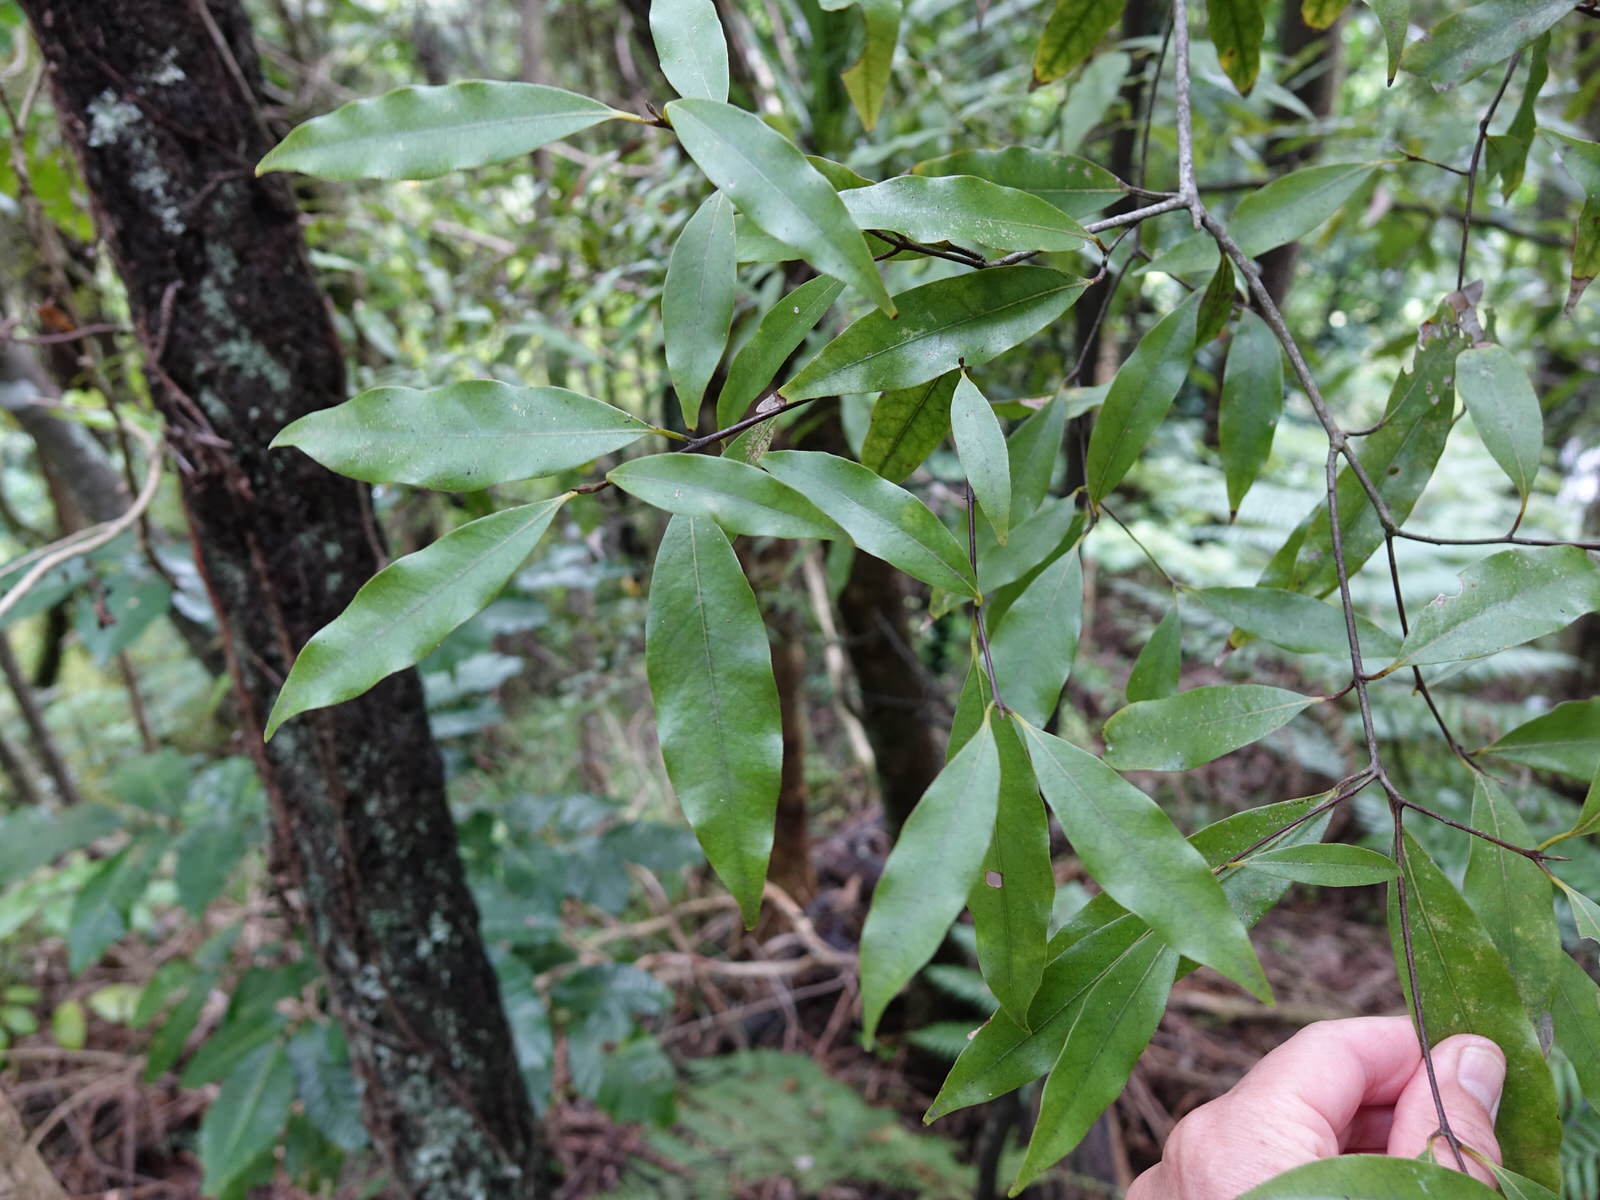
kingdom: Plantae
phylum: Tracheophyta
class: Magnoliopsida
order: Laurales
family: Lauraceae
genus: Beilschmiedia
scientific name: Beilschmiedia tawa
